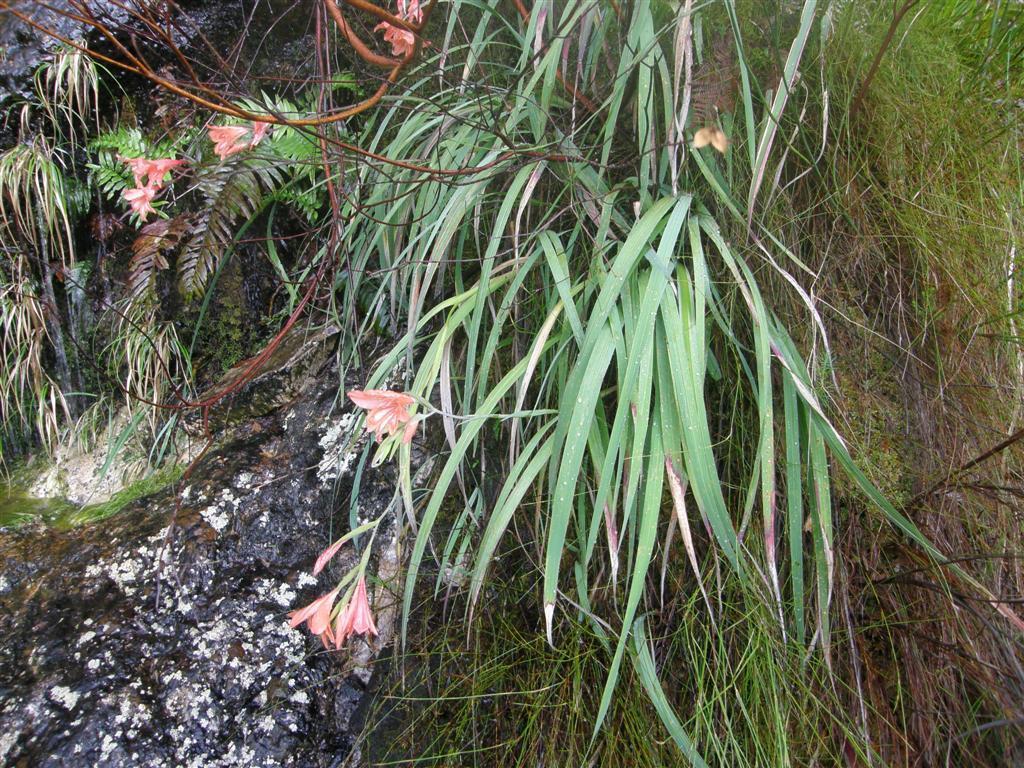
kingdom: Plantae
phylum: Tracheophyta
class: Liliopsida
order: Asparagales
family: Iridaceae
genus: Gladiolus
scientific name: Gladiolus cardinalis
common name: New year-lily
